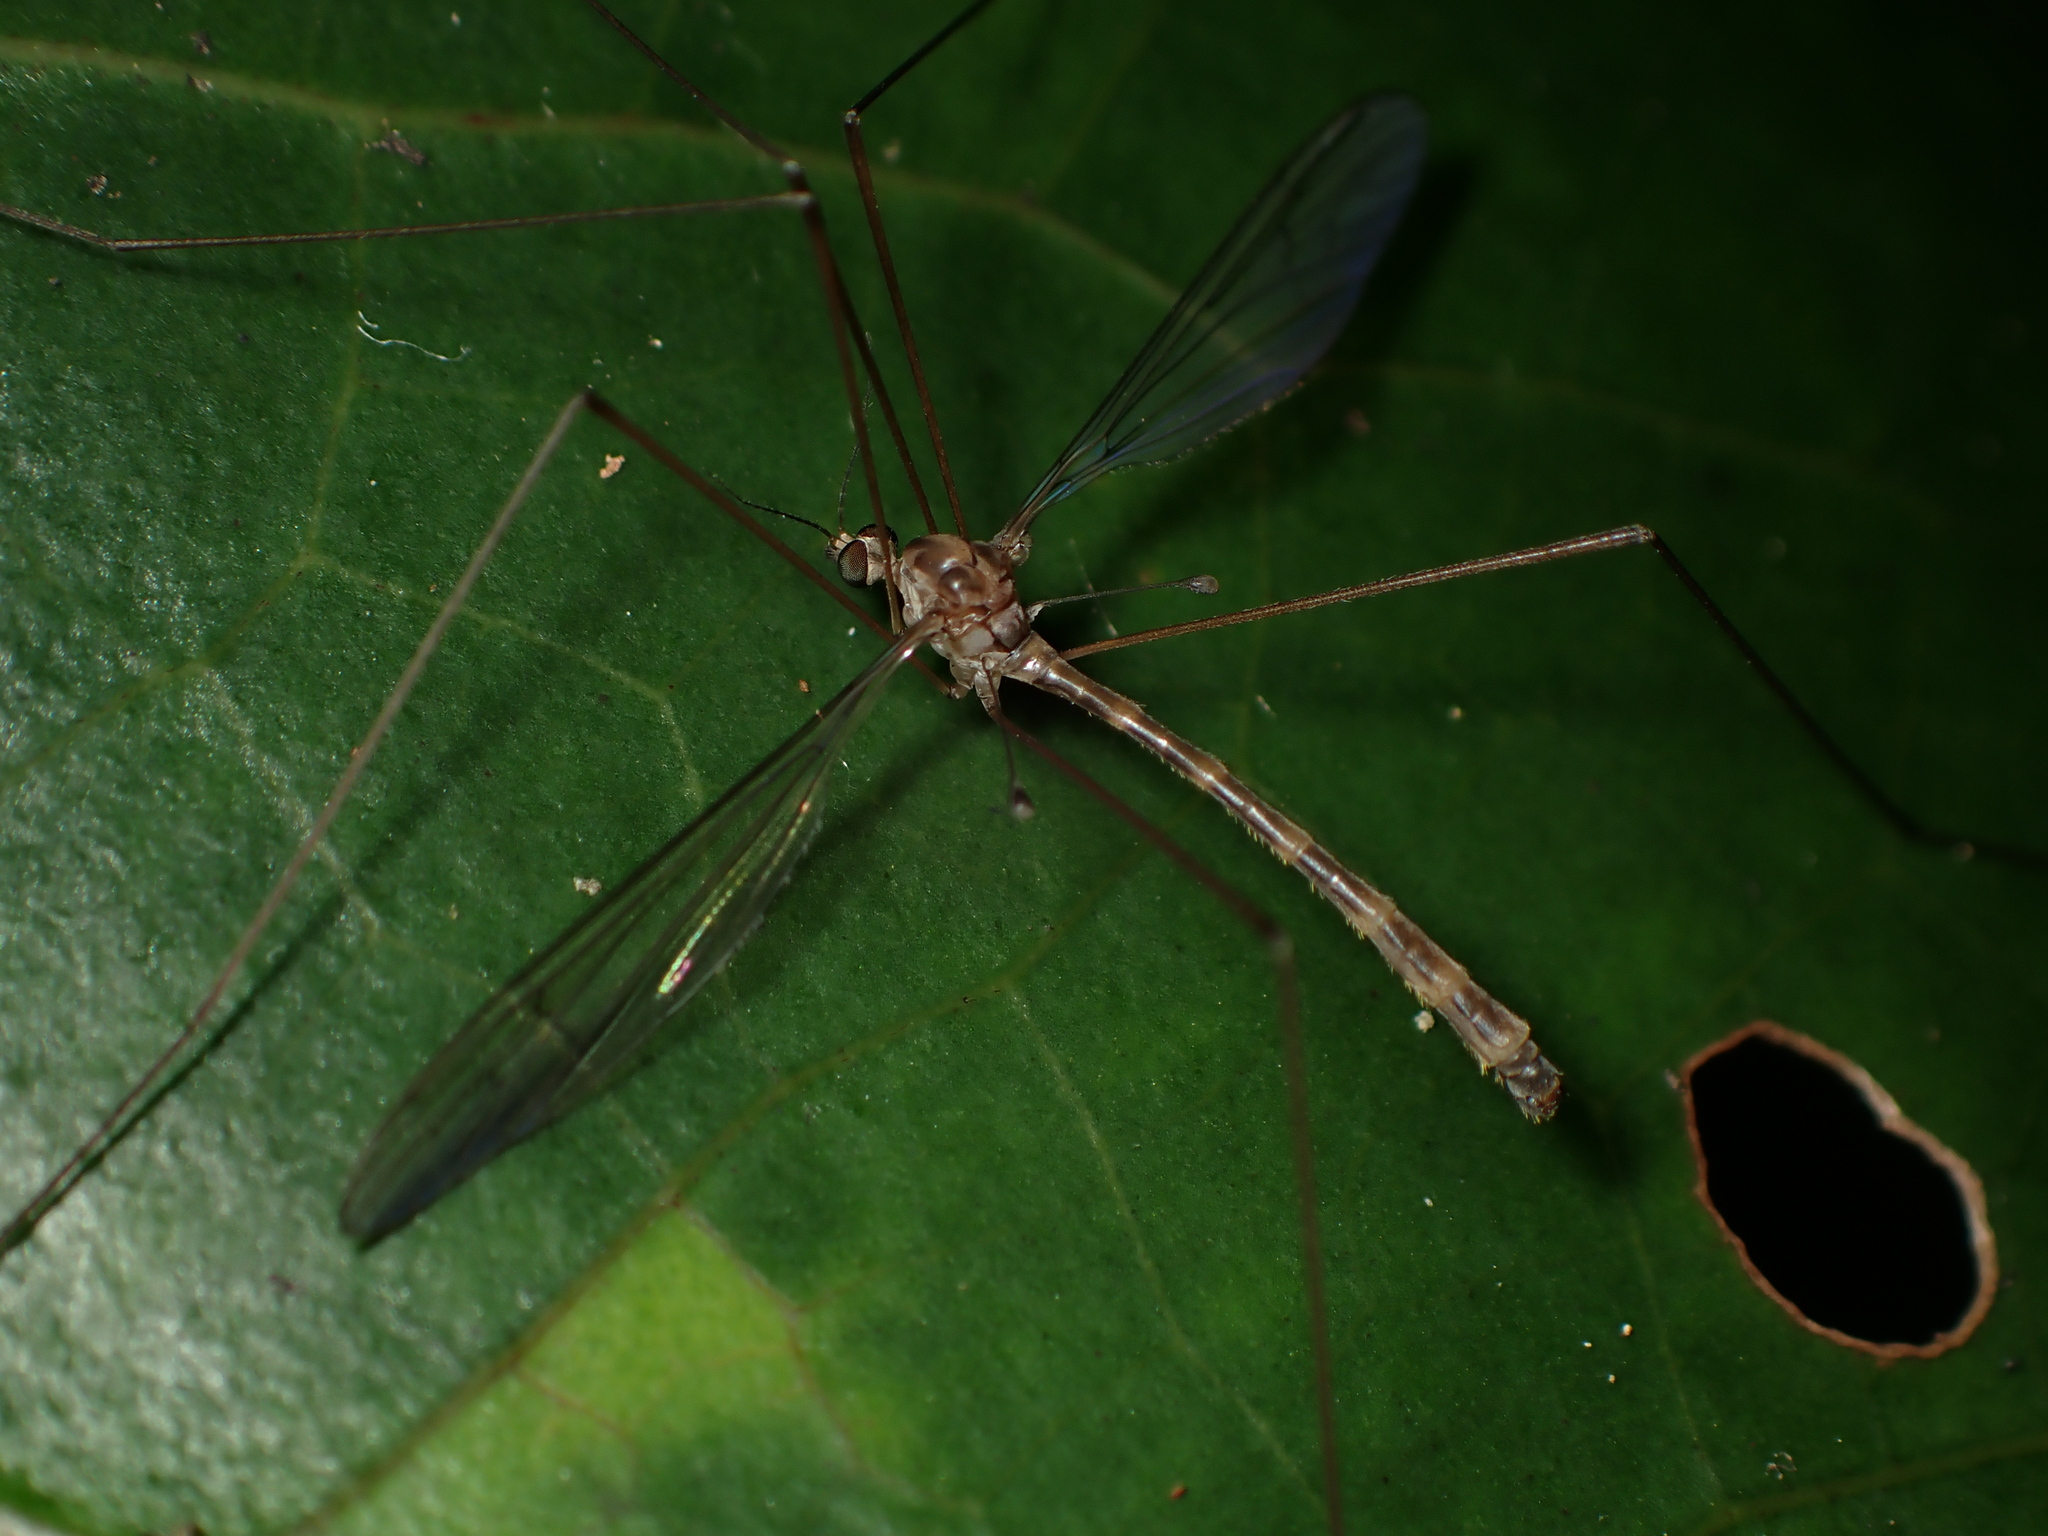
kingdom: Animalia
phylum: Arthropoda
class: Insecta
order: Diptera
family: Limoniidae
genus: Limnophilella
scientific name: Limnophilella delicatula
